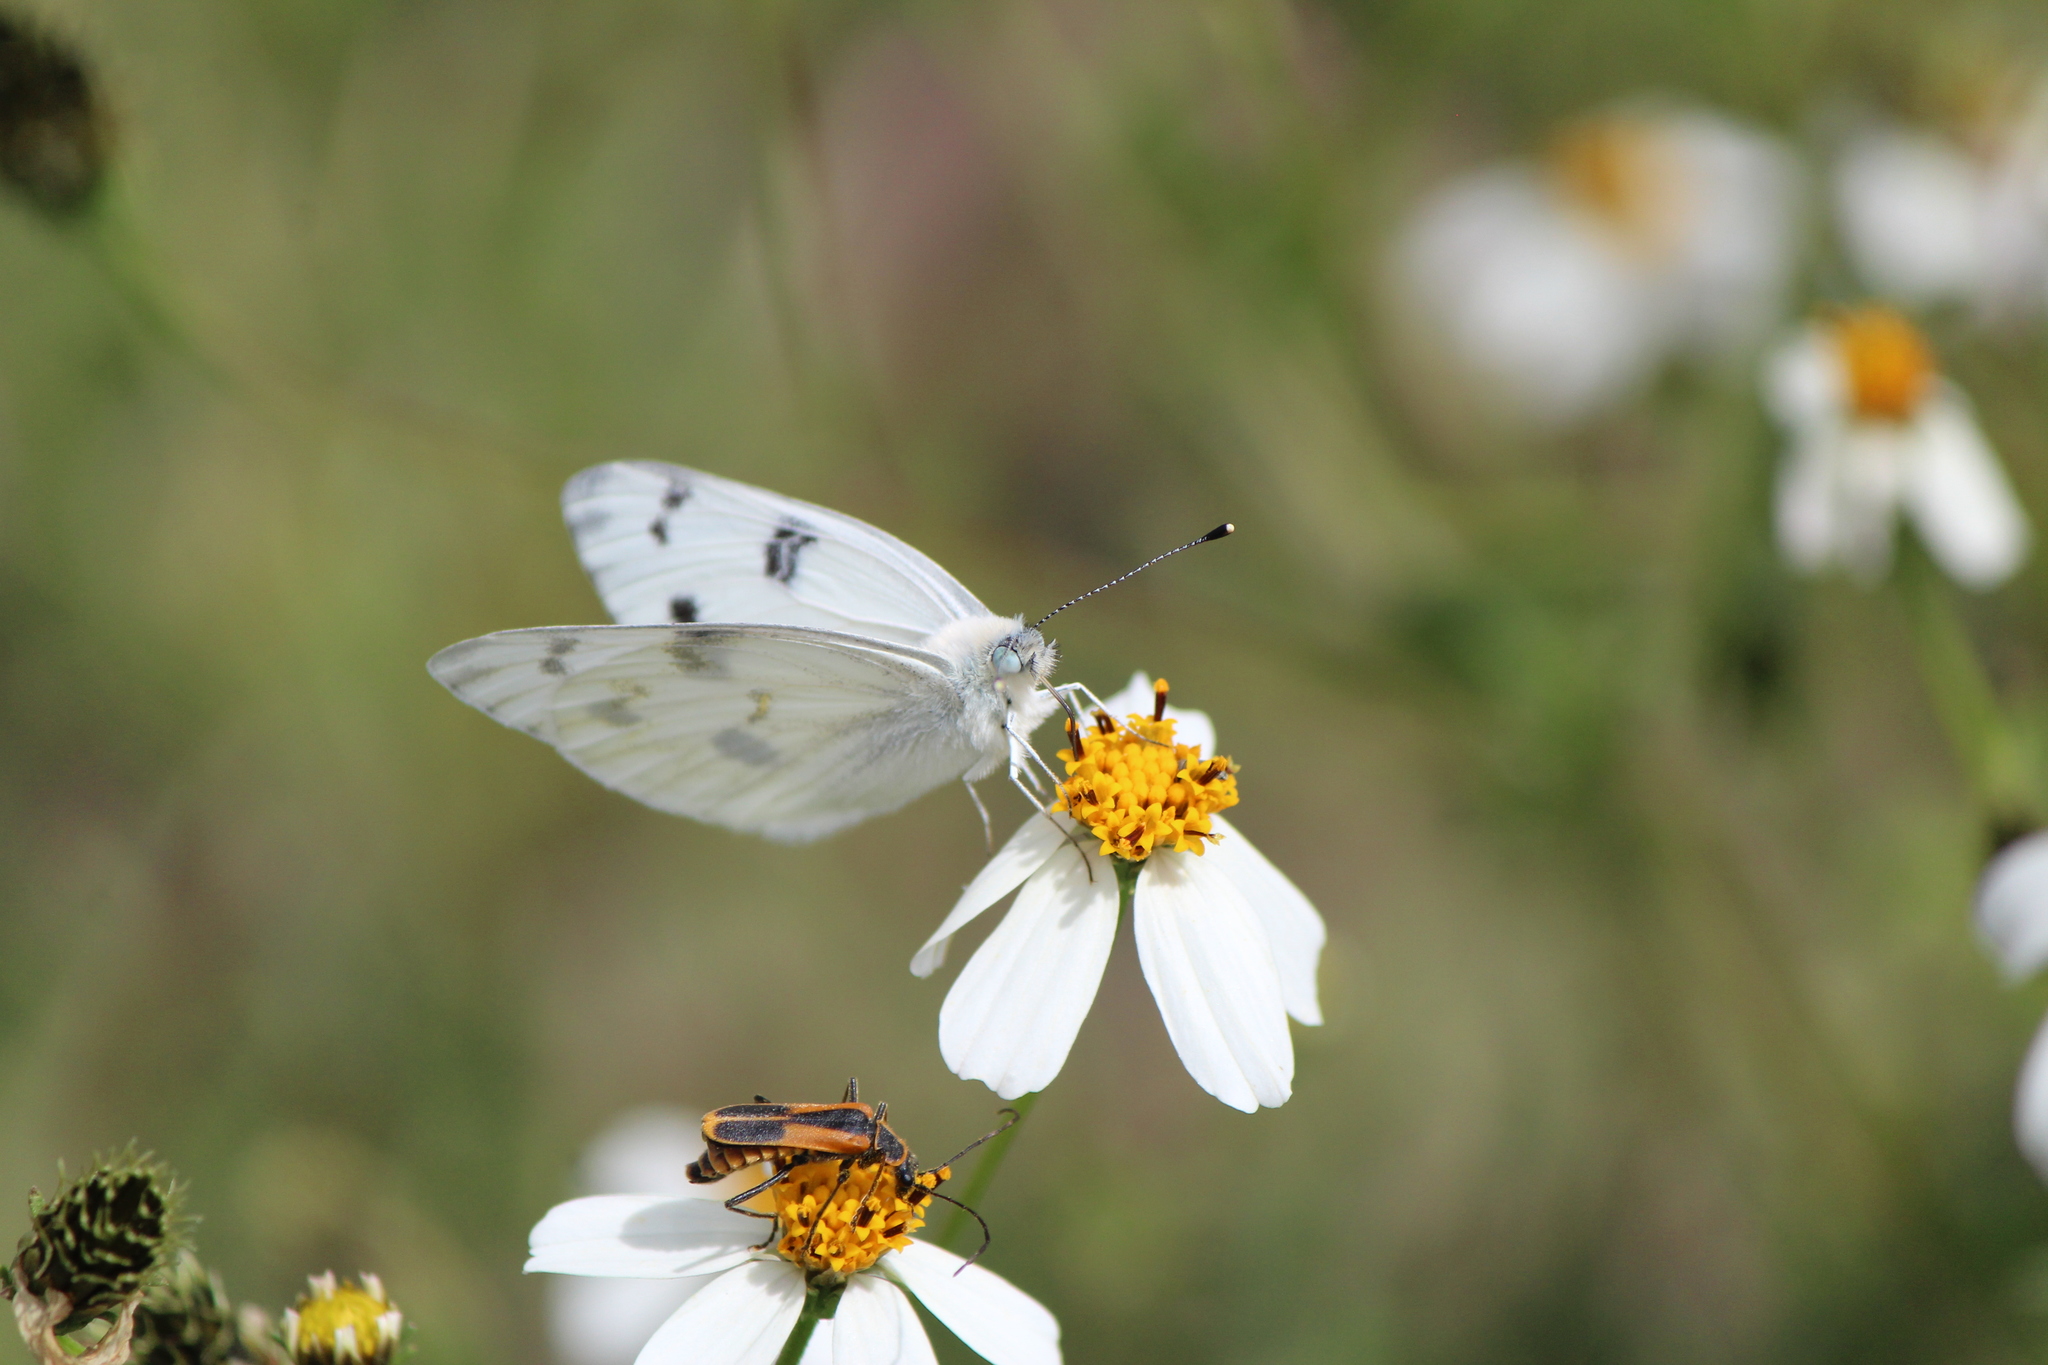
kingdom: Animalia
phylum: Arthropoda
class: Insecta
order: Lepidoptera
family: Pieridae
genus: Pontia
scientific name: Pontia protodice
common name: Checkered white
